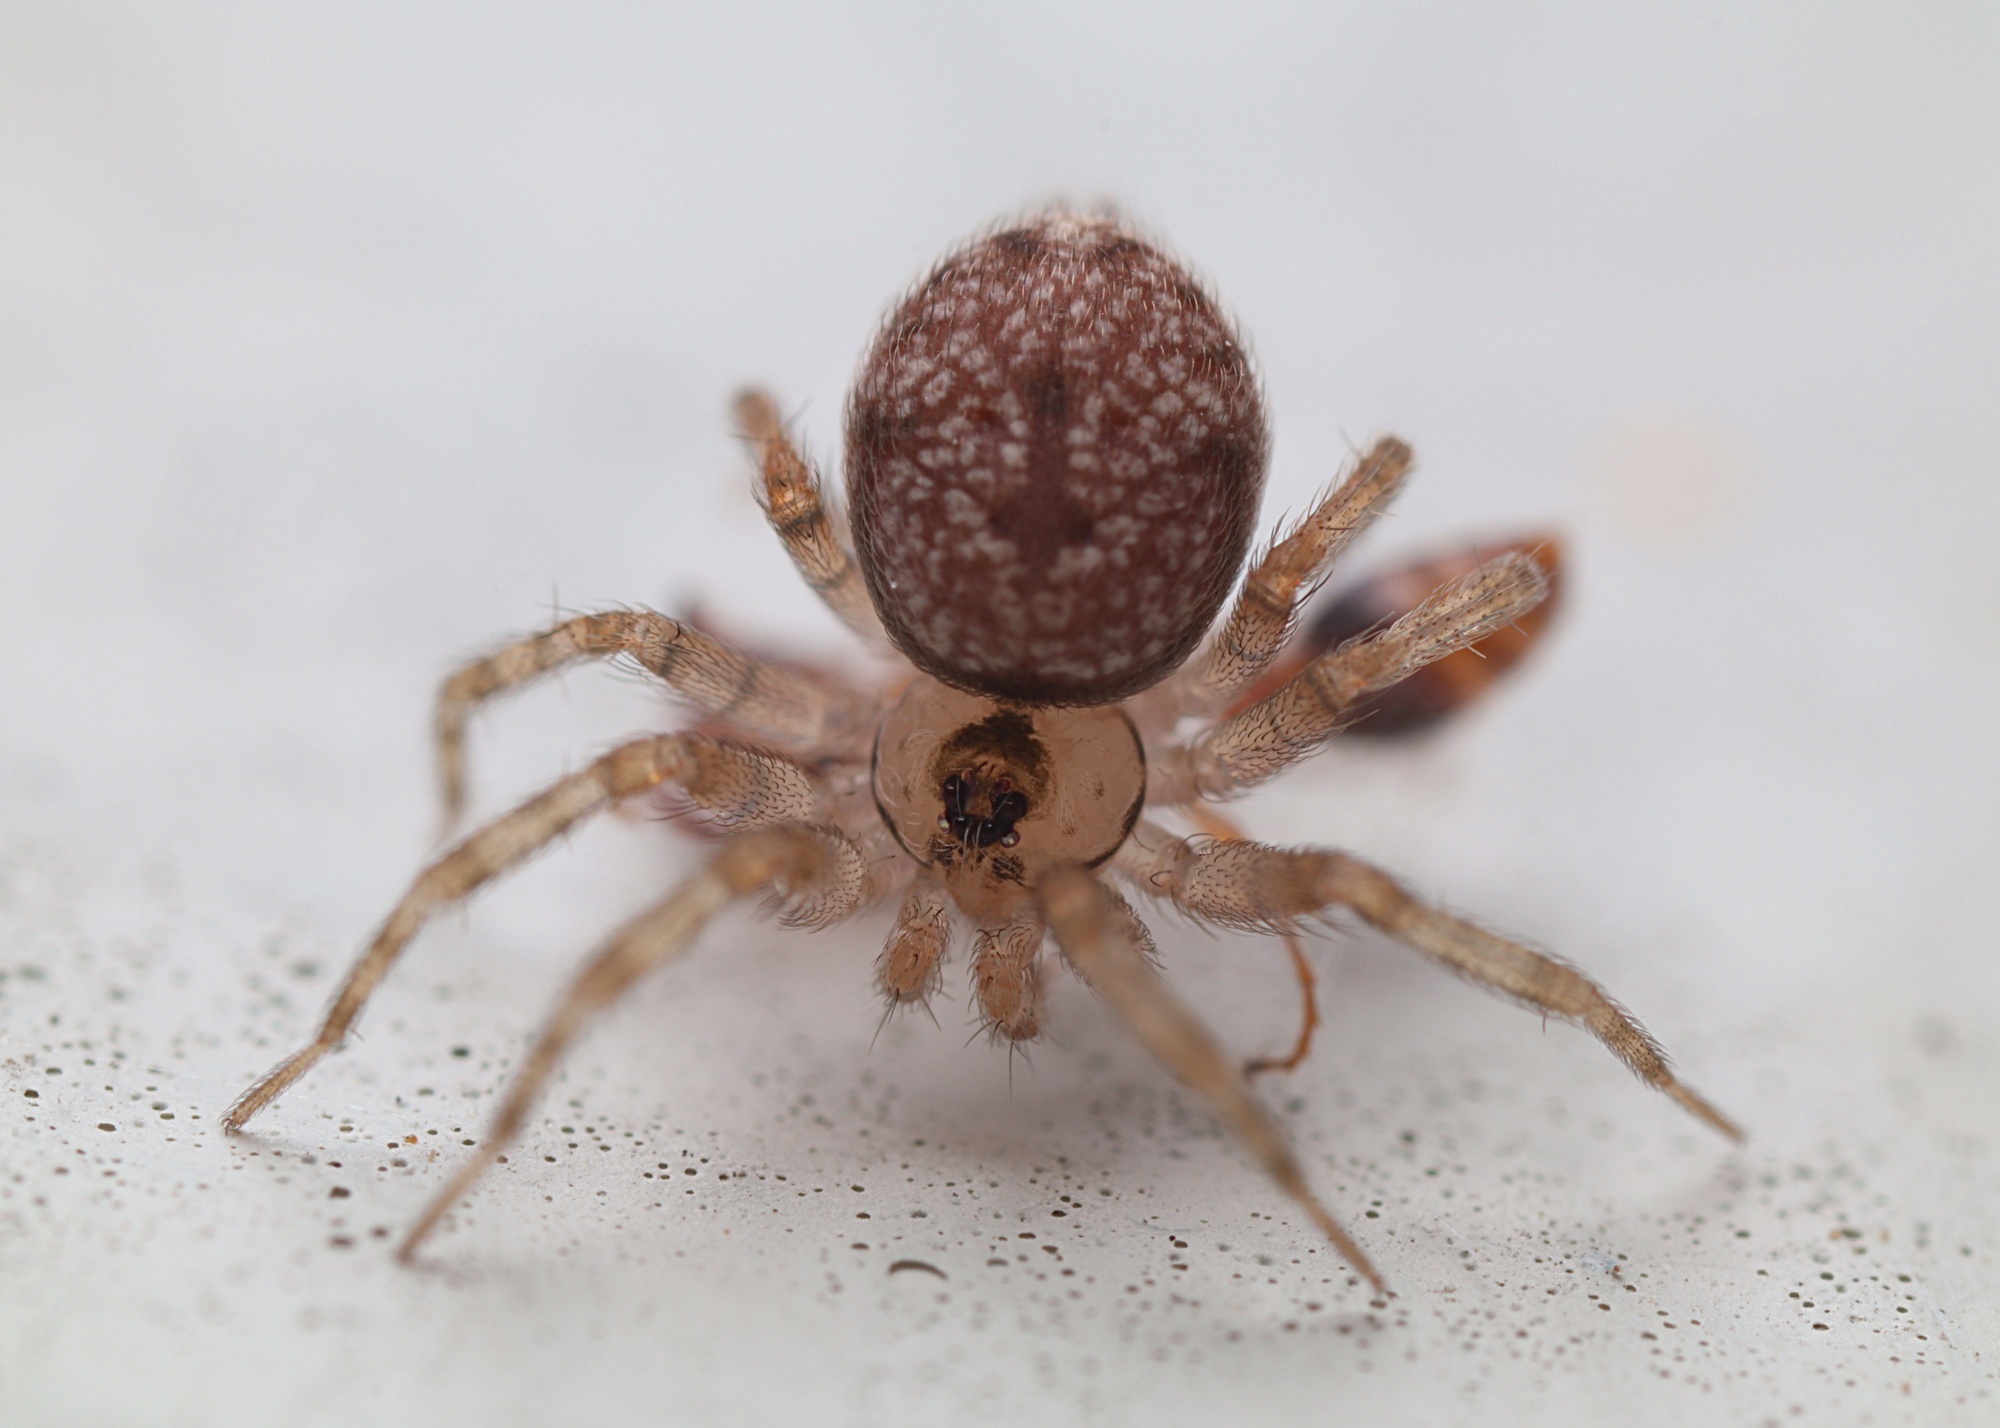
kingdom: Animalia
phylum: Arthropoda
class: Arachnida
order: Araneae
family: Oecobiidae
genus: Oecobius
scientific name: Oecobius navus
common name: Flatmesh weaver
